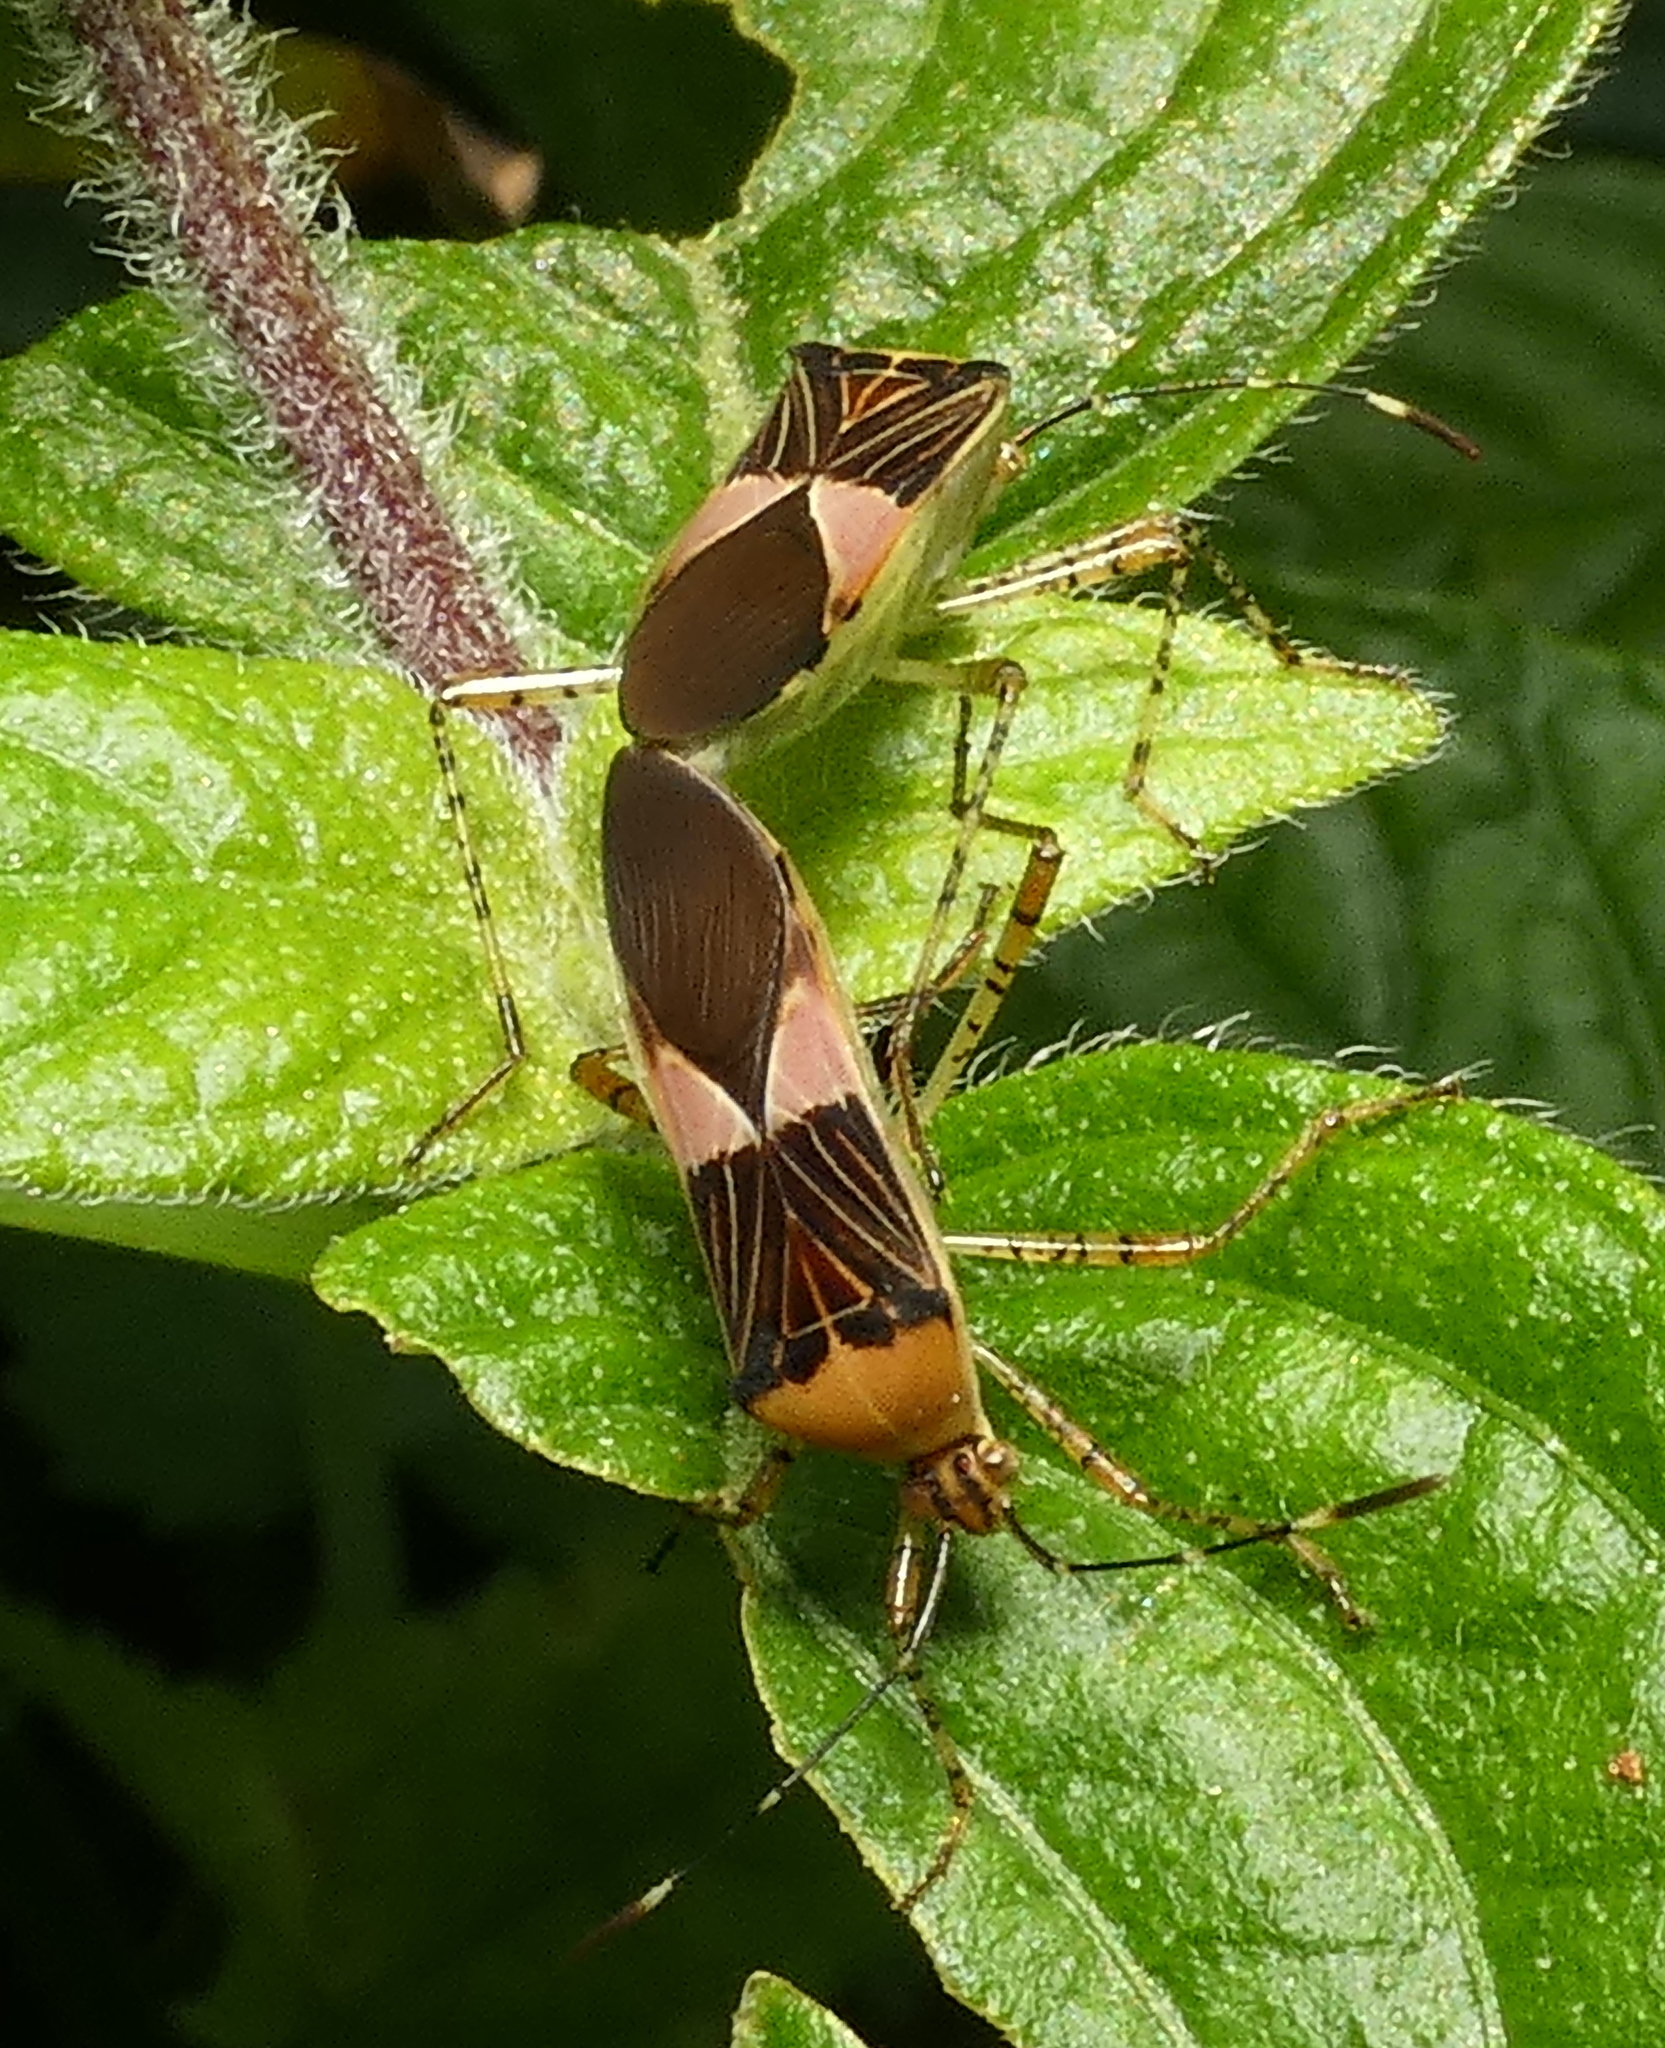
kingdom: Animalia
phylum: Arthropoda
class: Insecta
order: Hemiptera
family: Coreidae
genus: Hypselonotus
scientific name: Hypselonotus fulvus
